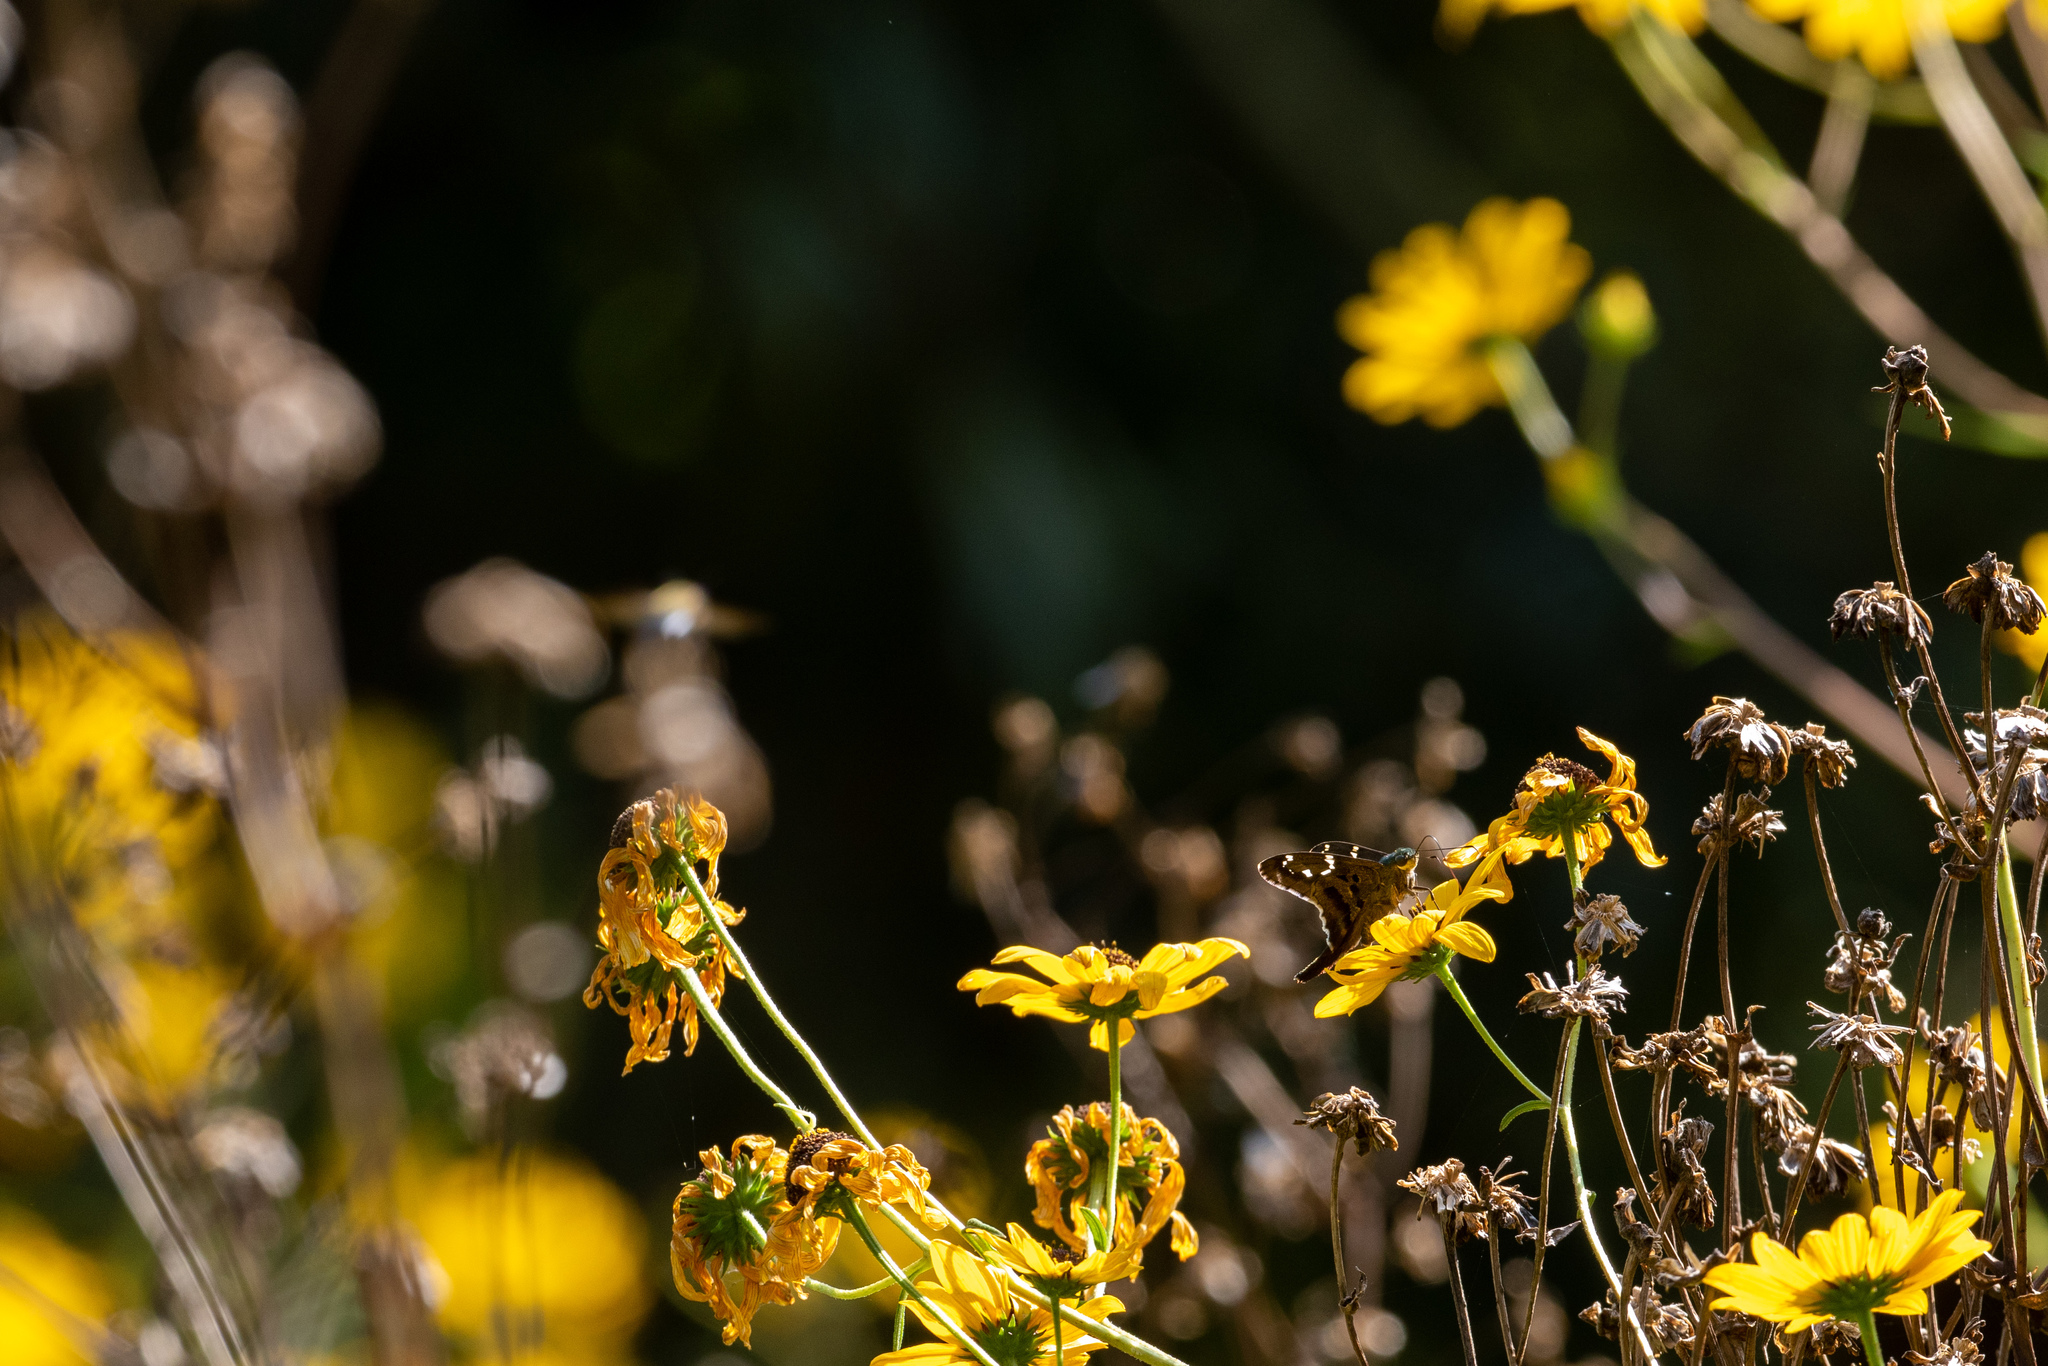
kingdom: Animalia
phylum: Arthropoda
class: Insecta
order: Lepidoptera
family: Hesperiidae
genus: Urbanus
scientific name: Urbanus proteus
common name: Long-tailed skipper
